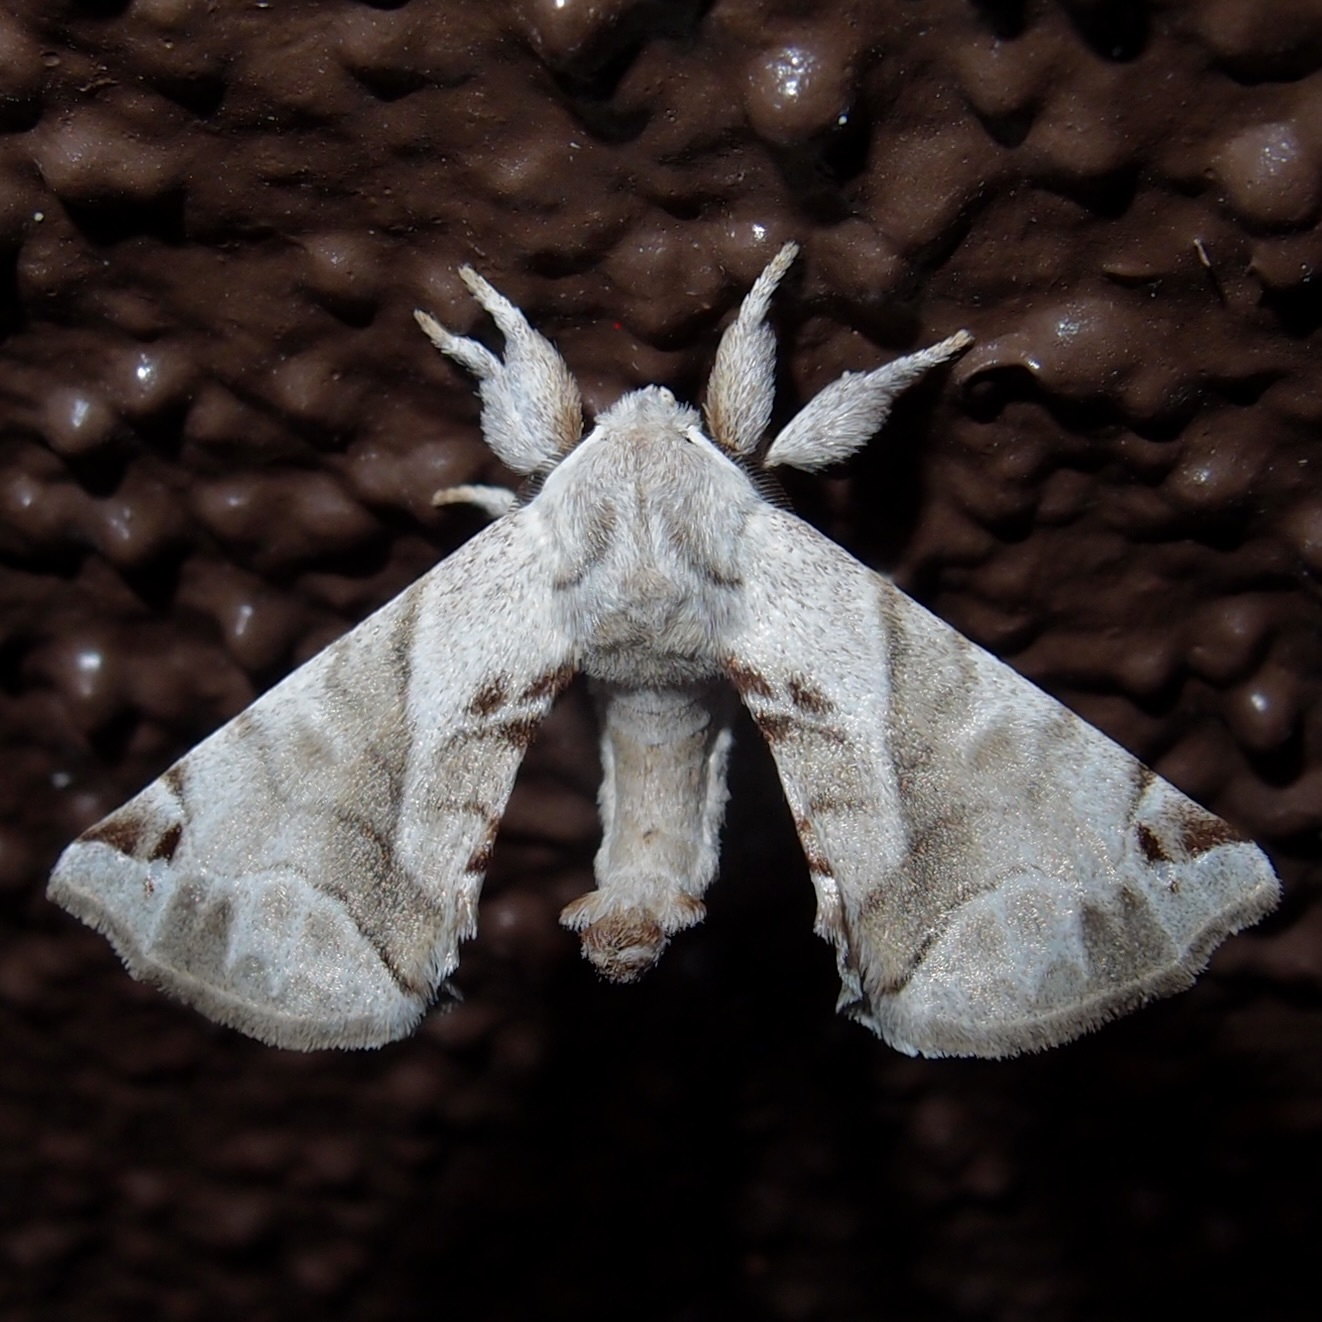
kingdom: Animalia
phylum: Arthropoda
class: Insecta
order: Lepidoptera
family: Apatelodidae
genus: Hygrochroa
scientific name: Hygrochroa Apatelodes pudefacta
